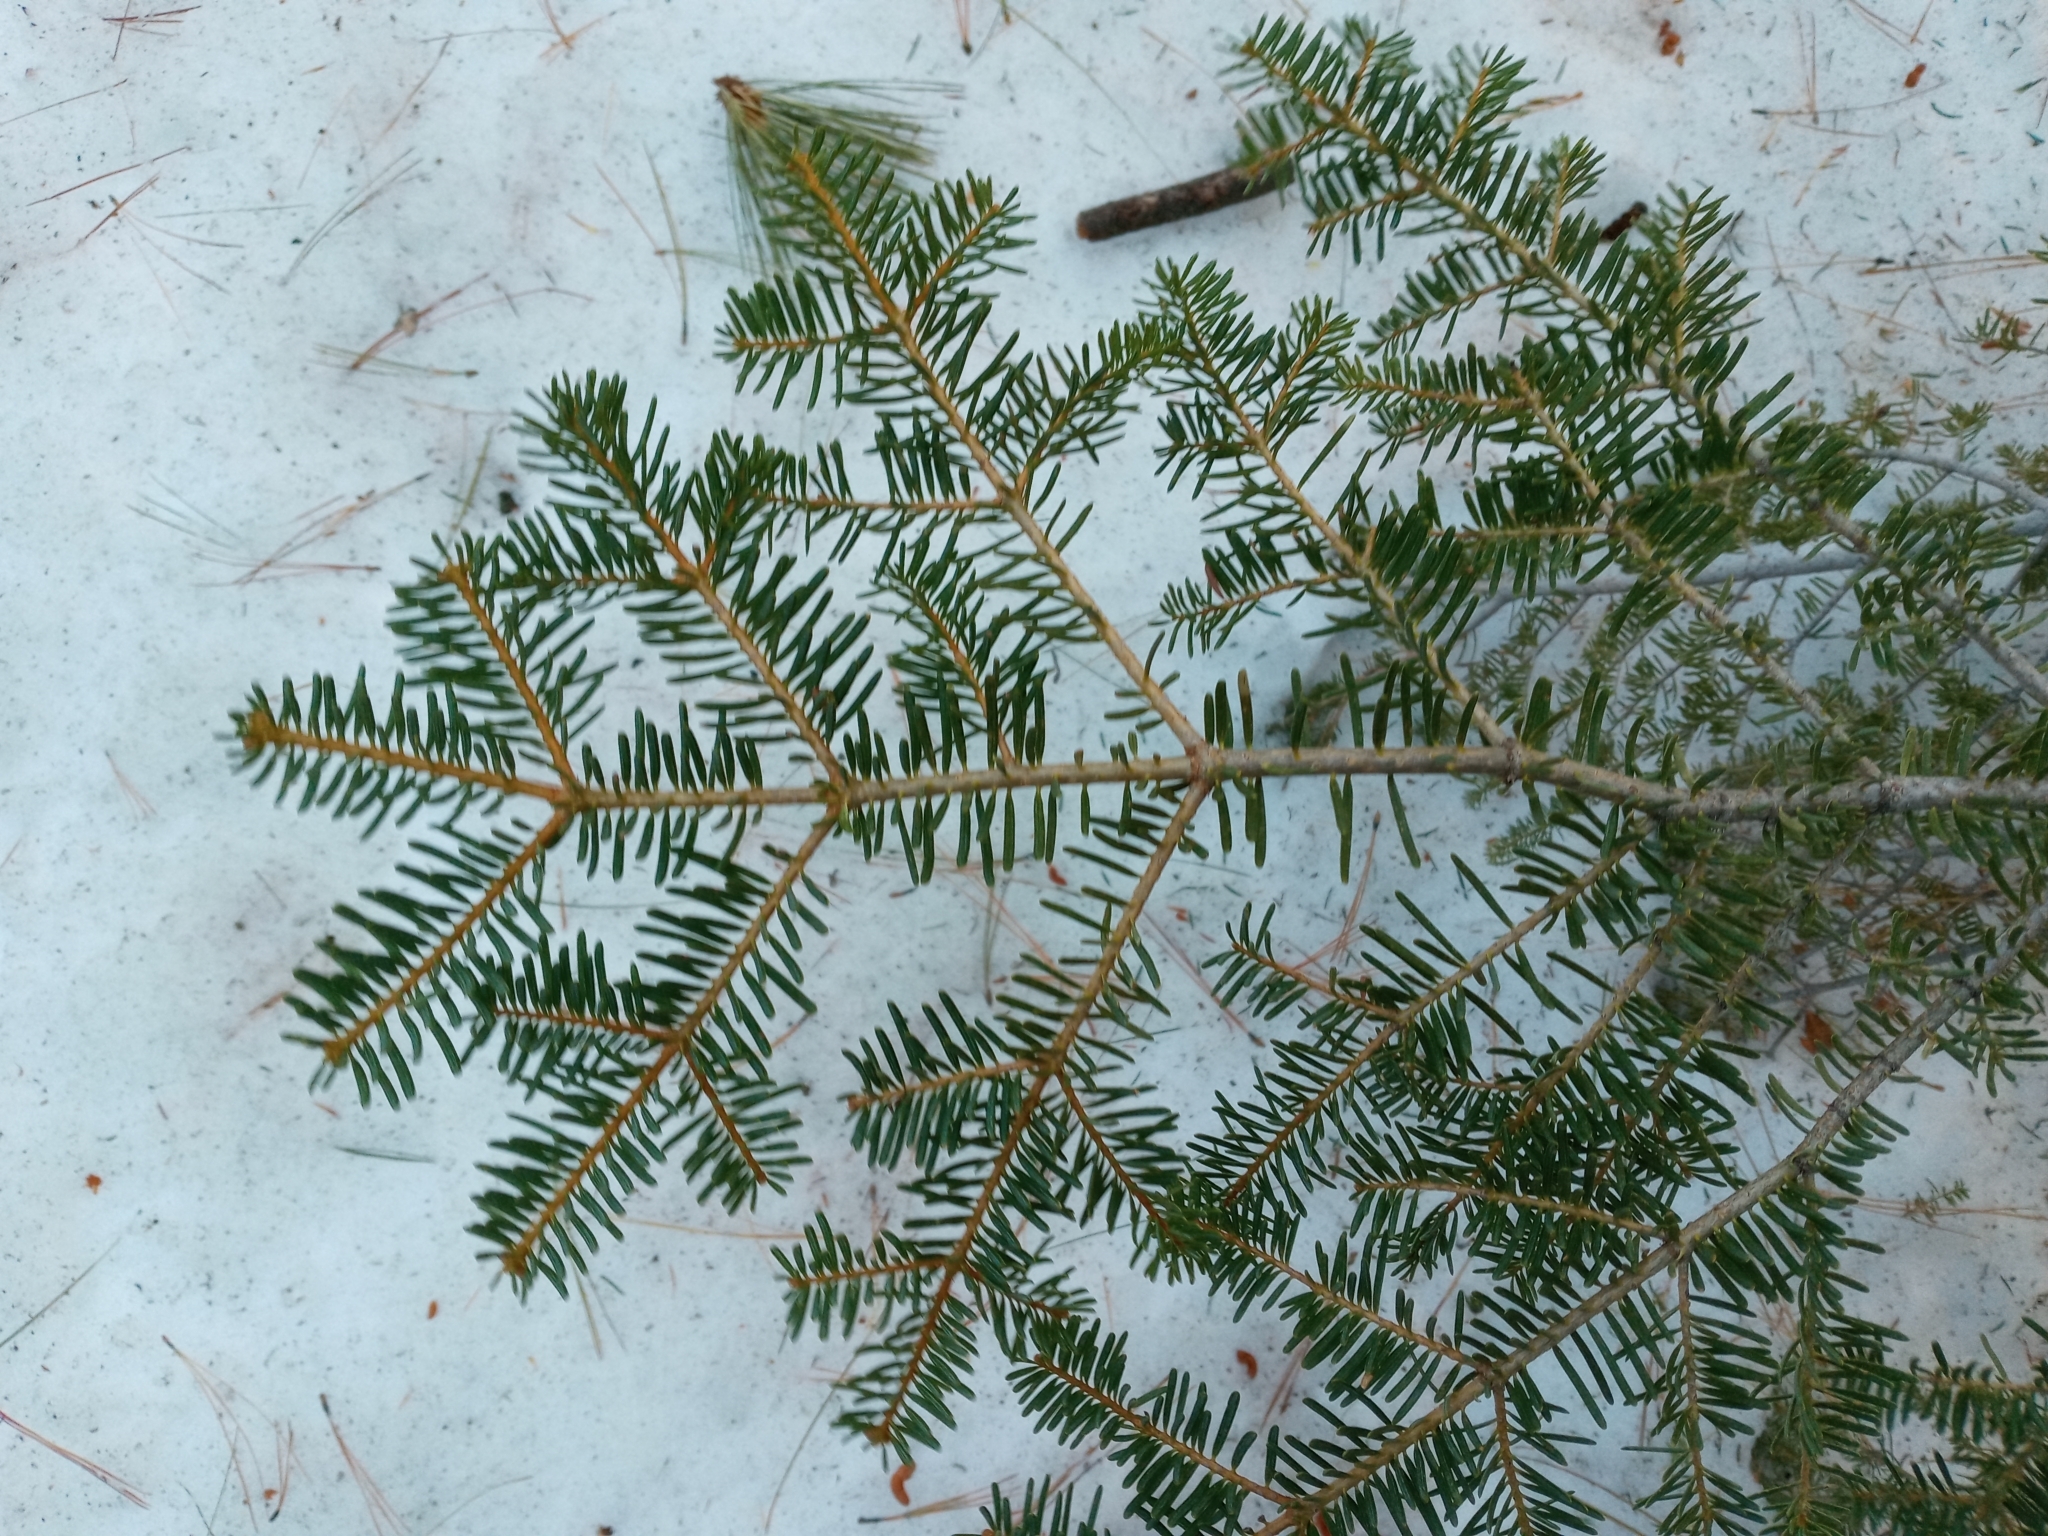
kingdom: Plantae
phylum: Tracheophyta
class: Pinopsida
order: Pinales
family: Pinaceae
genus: Abies
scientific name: Abies concolor
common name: Colorado fir
